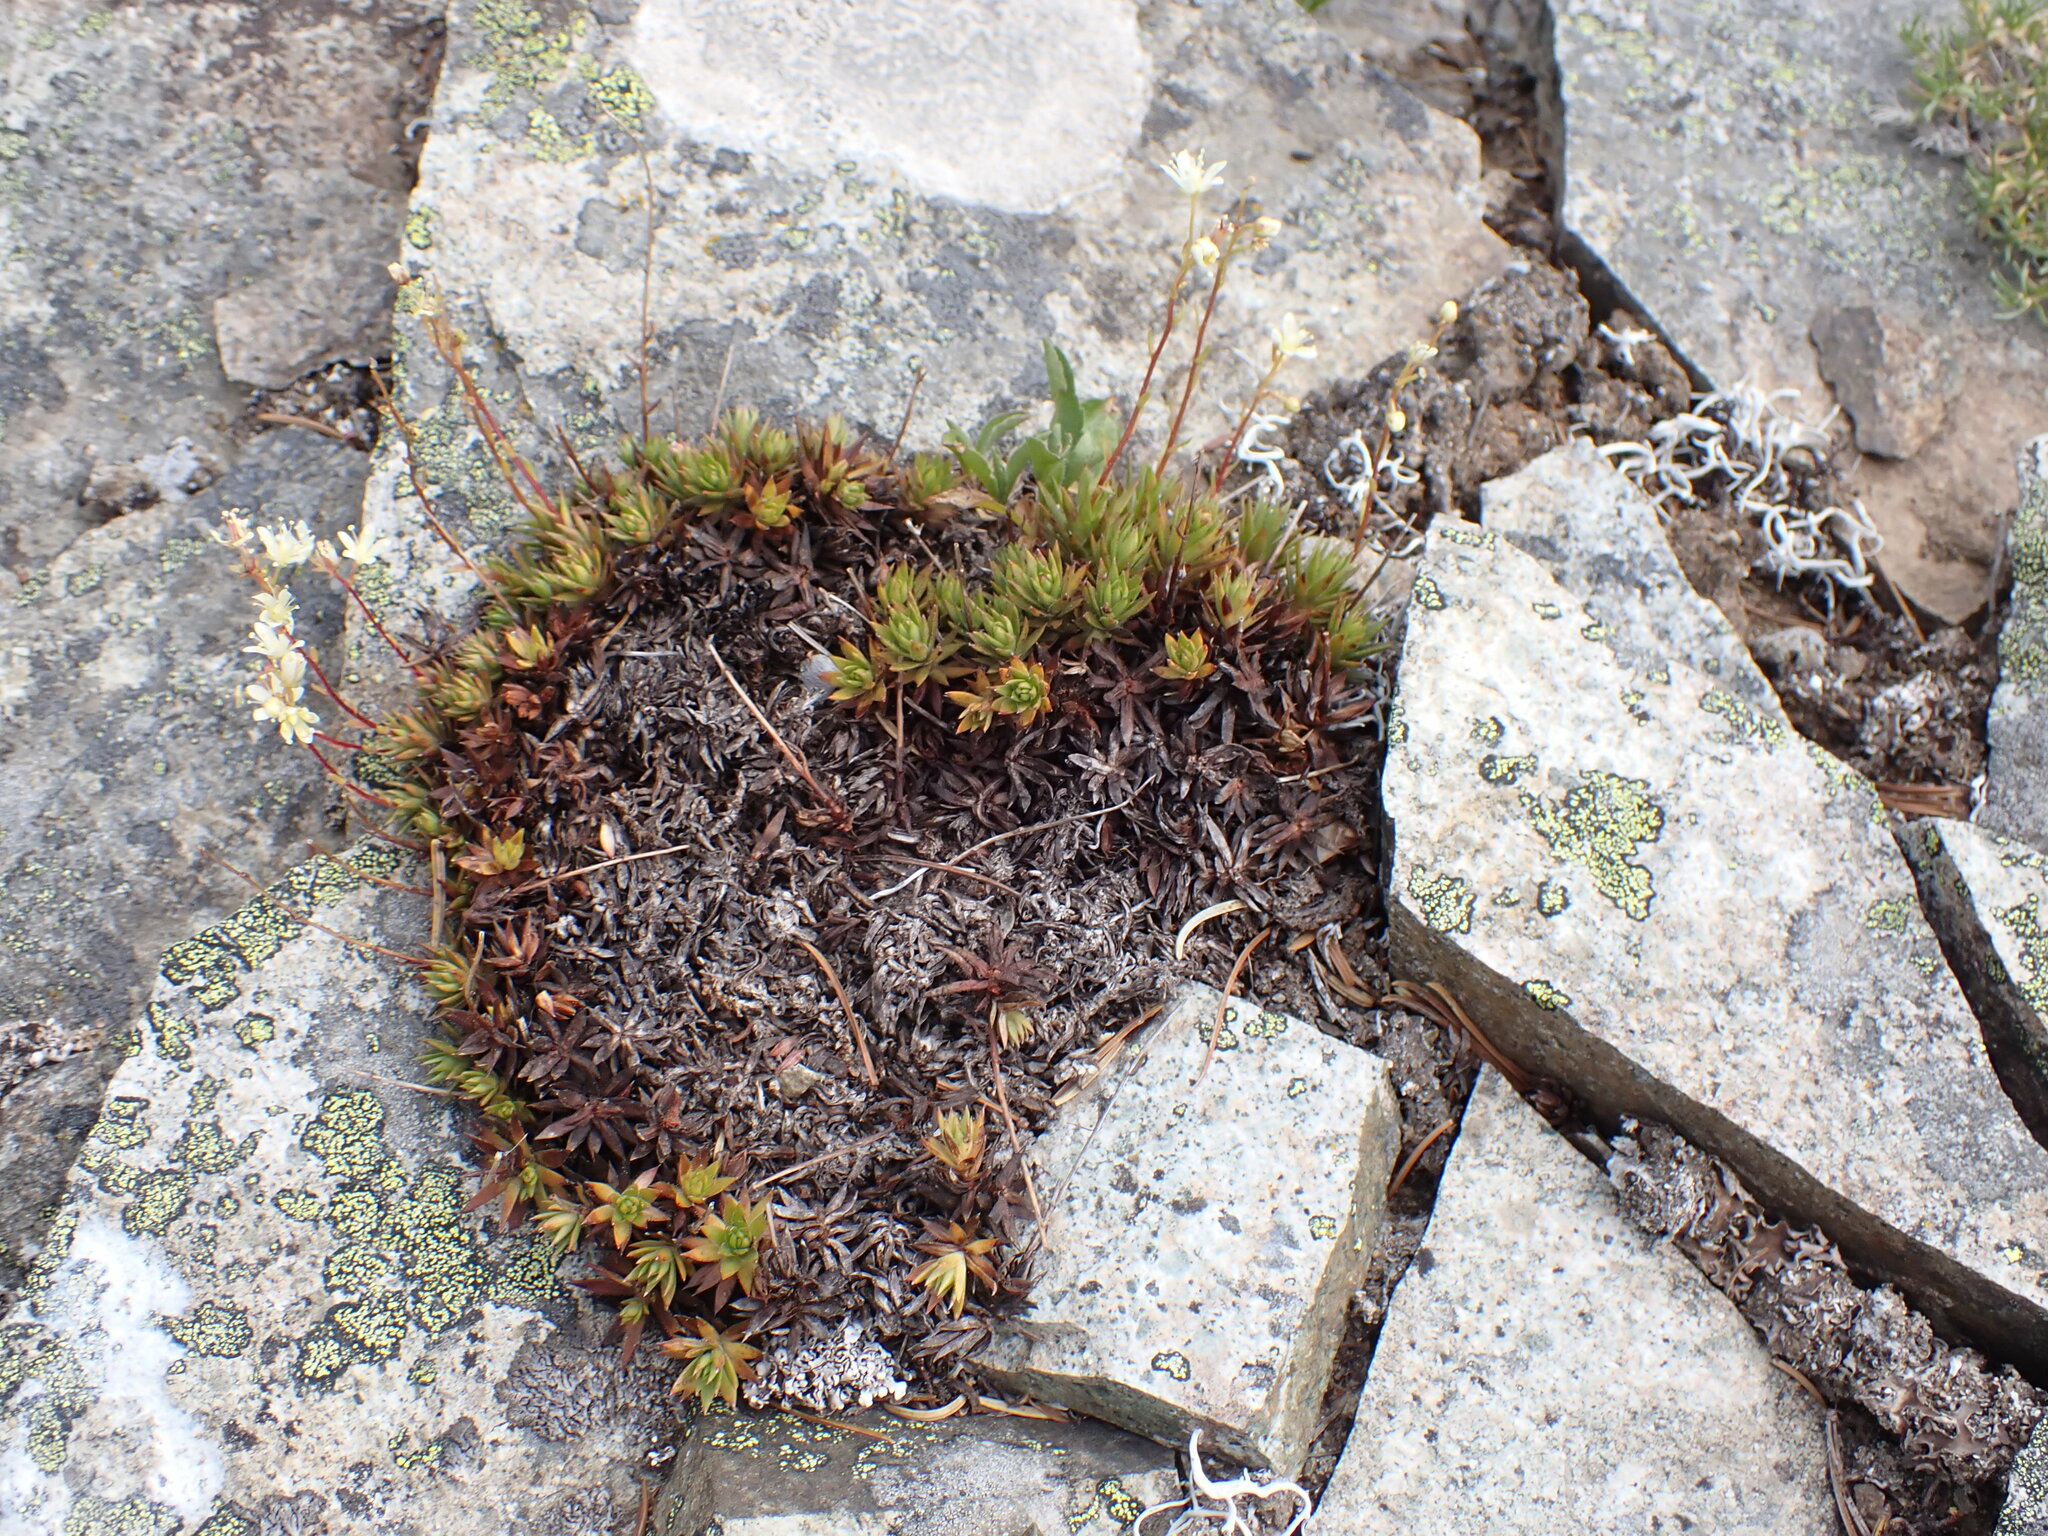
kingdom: Plantae
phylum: Tracheophyta
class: Magnoliopsida
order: Saxifragales
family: Saxifragaceae
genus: Saxifraga
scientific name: Saxifraga bronchialis
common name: Matted saxifrage
